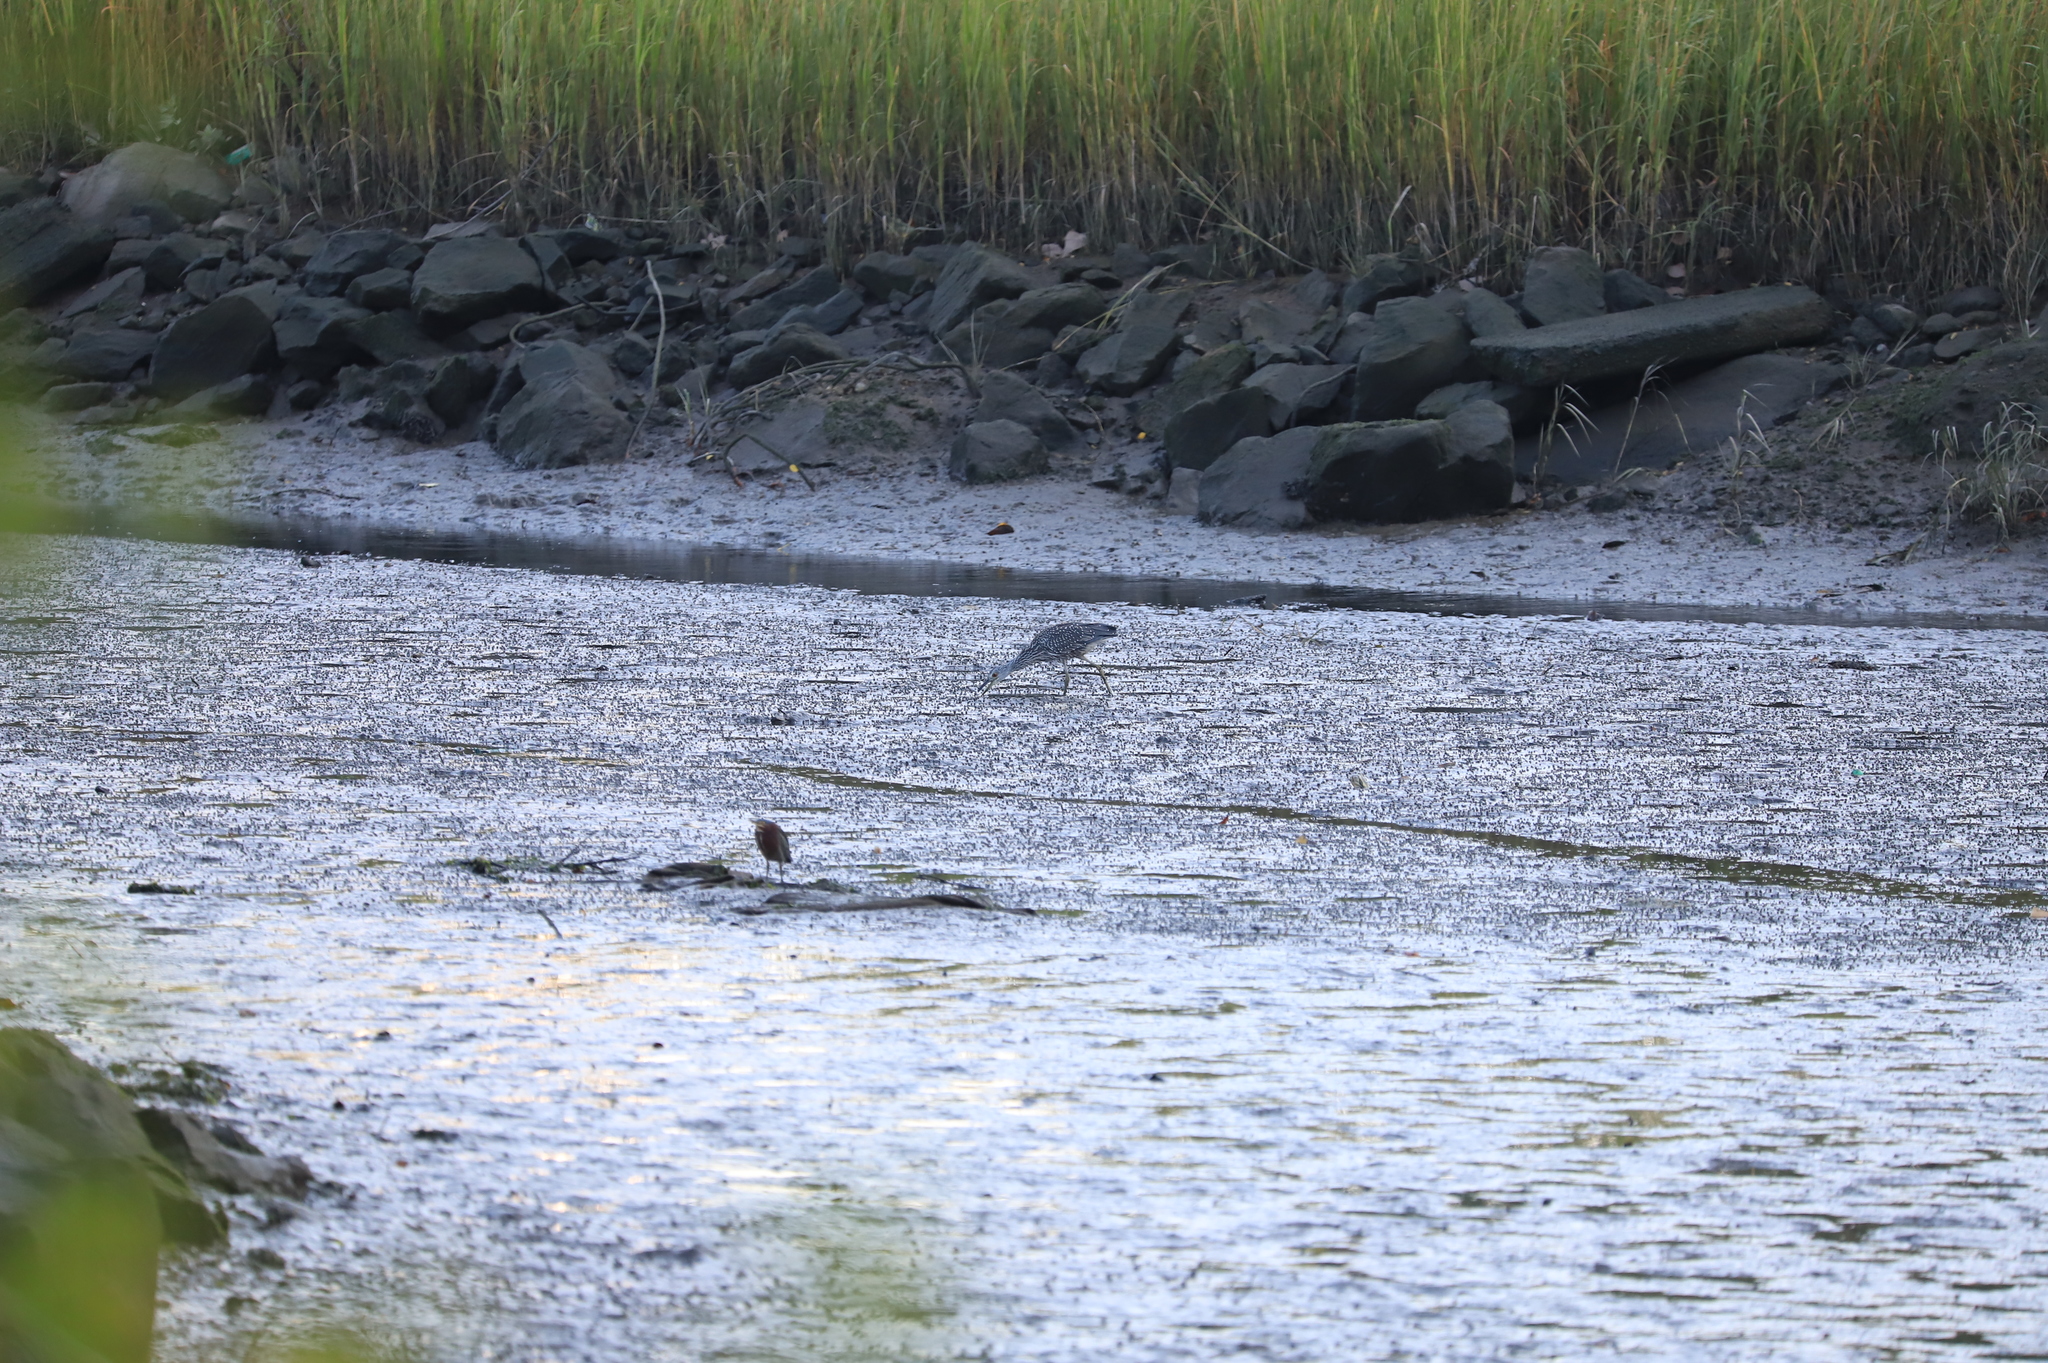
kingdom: Animalia
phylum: Chordata
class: Aves
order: Pelecaniformes
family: Ardeidae
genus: Nyctanassa
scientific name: Nyctanassa violacea
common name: Yellow-crowned night heron
